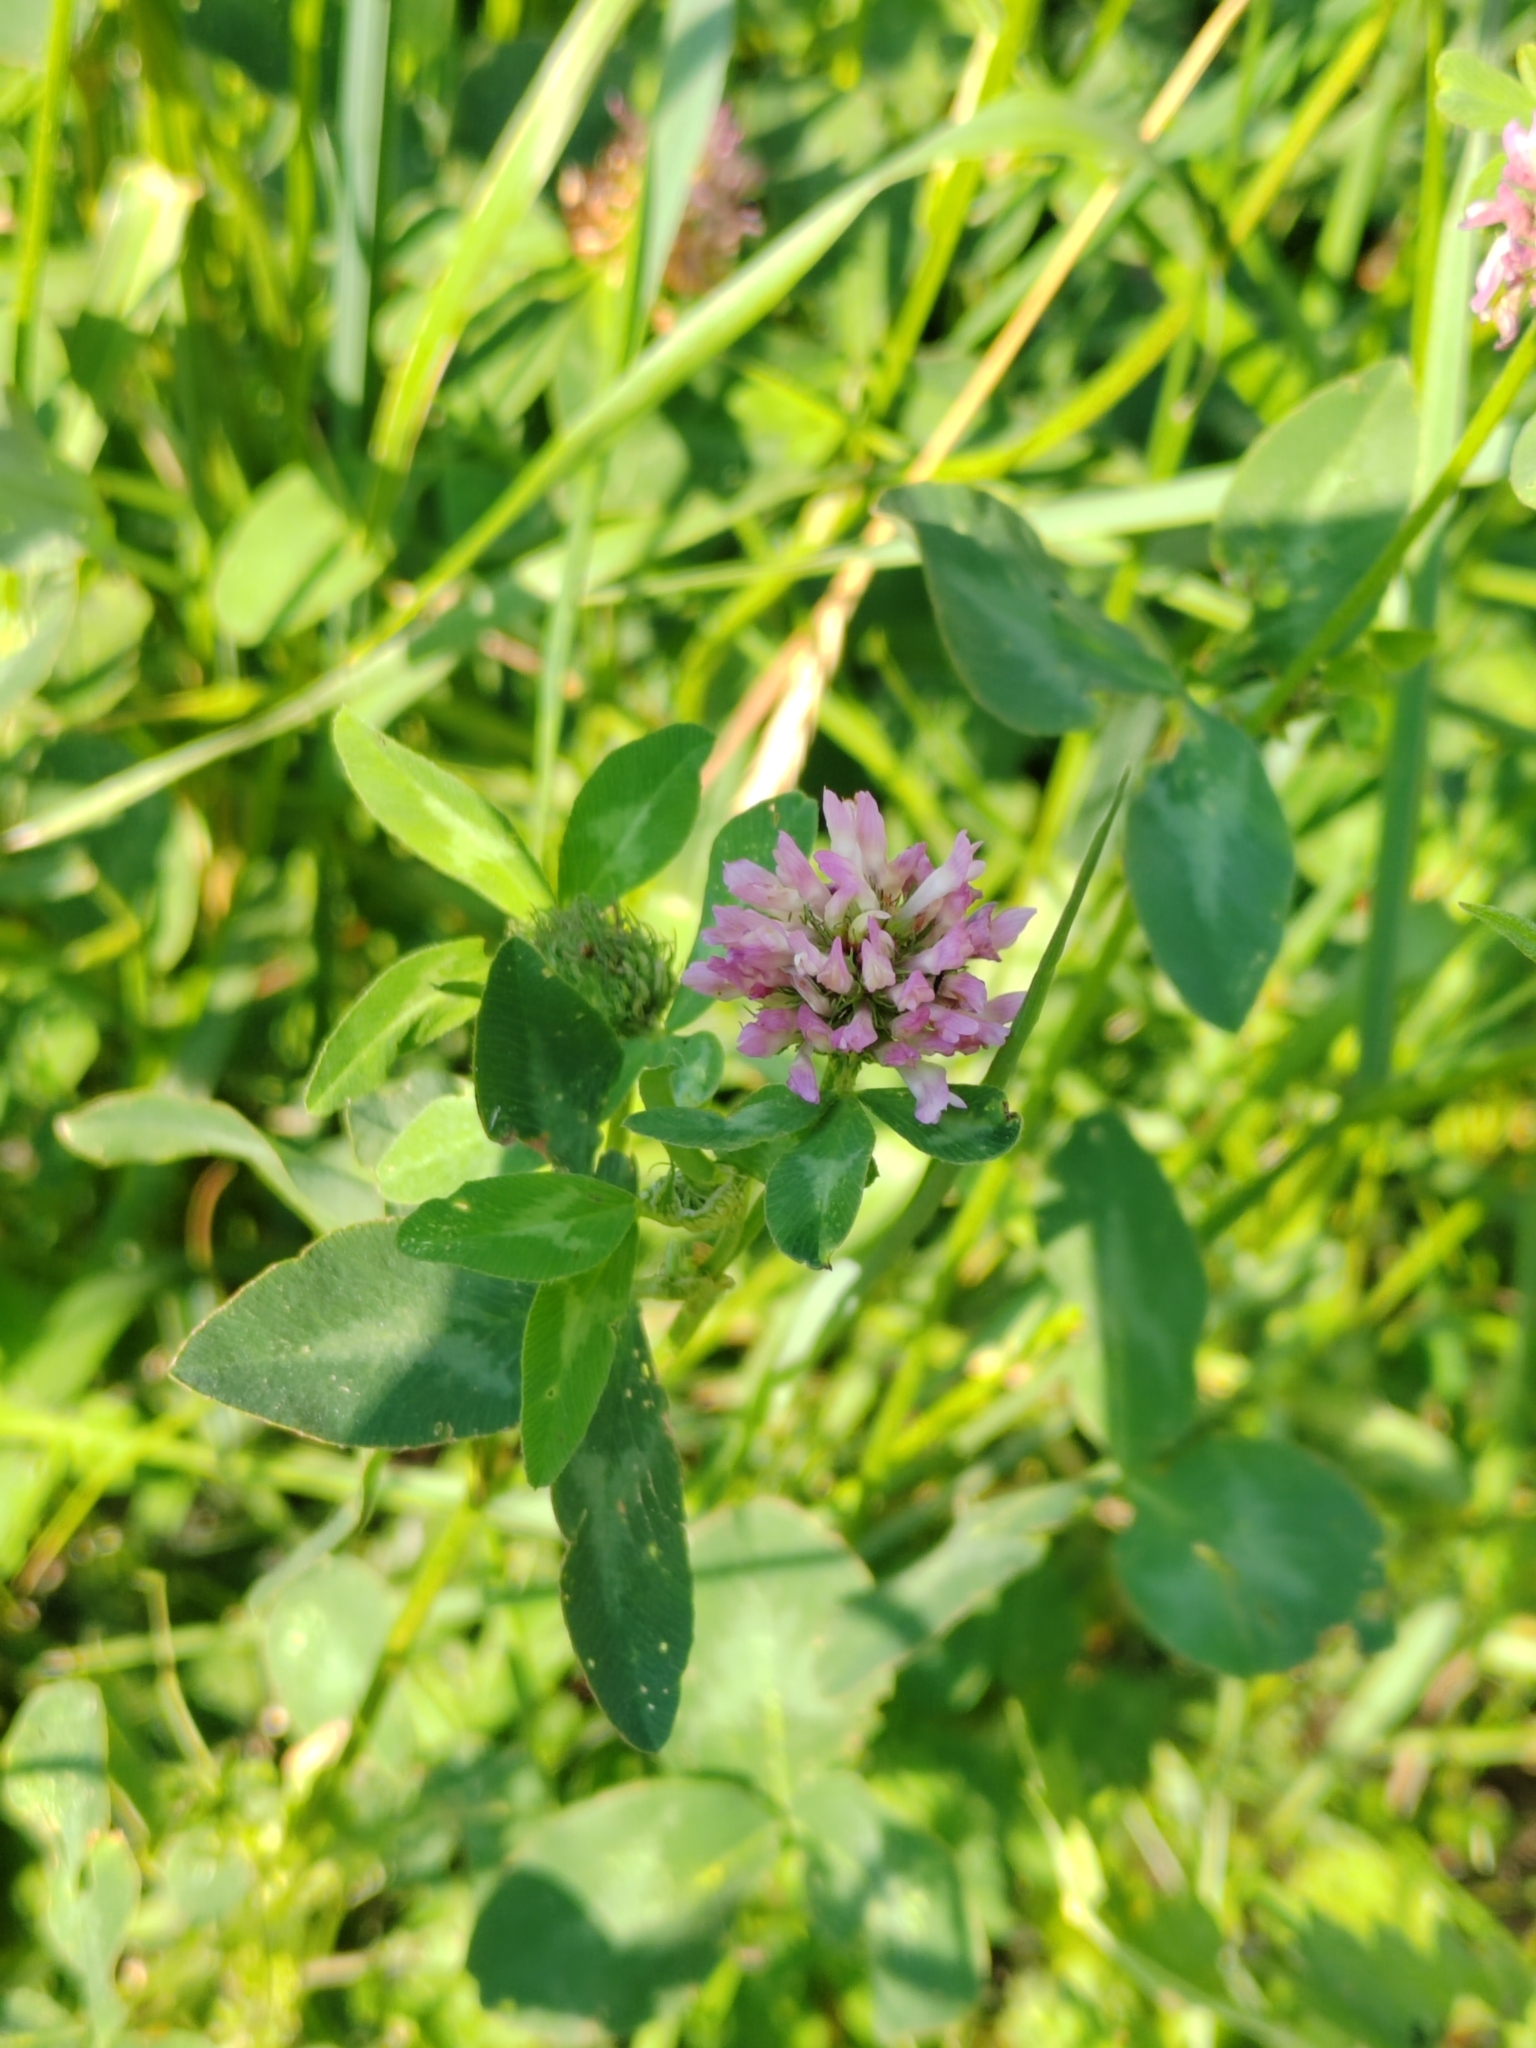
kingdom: Plantae
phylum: Tracheophyta
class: Magnoliopsida
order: Fabales
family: Fabaceae
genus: Trifolium
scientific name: Trifolium pratense
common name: Red clover
